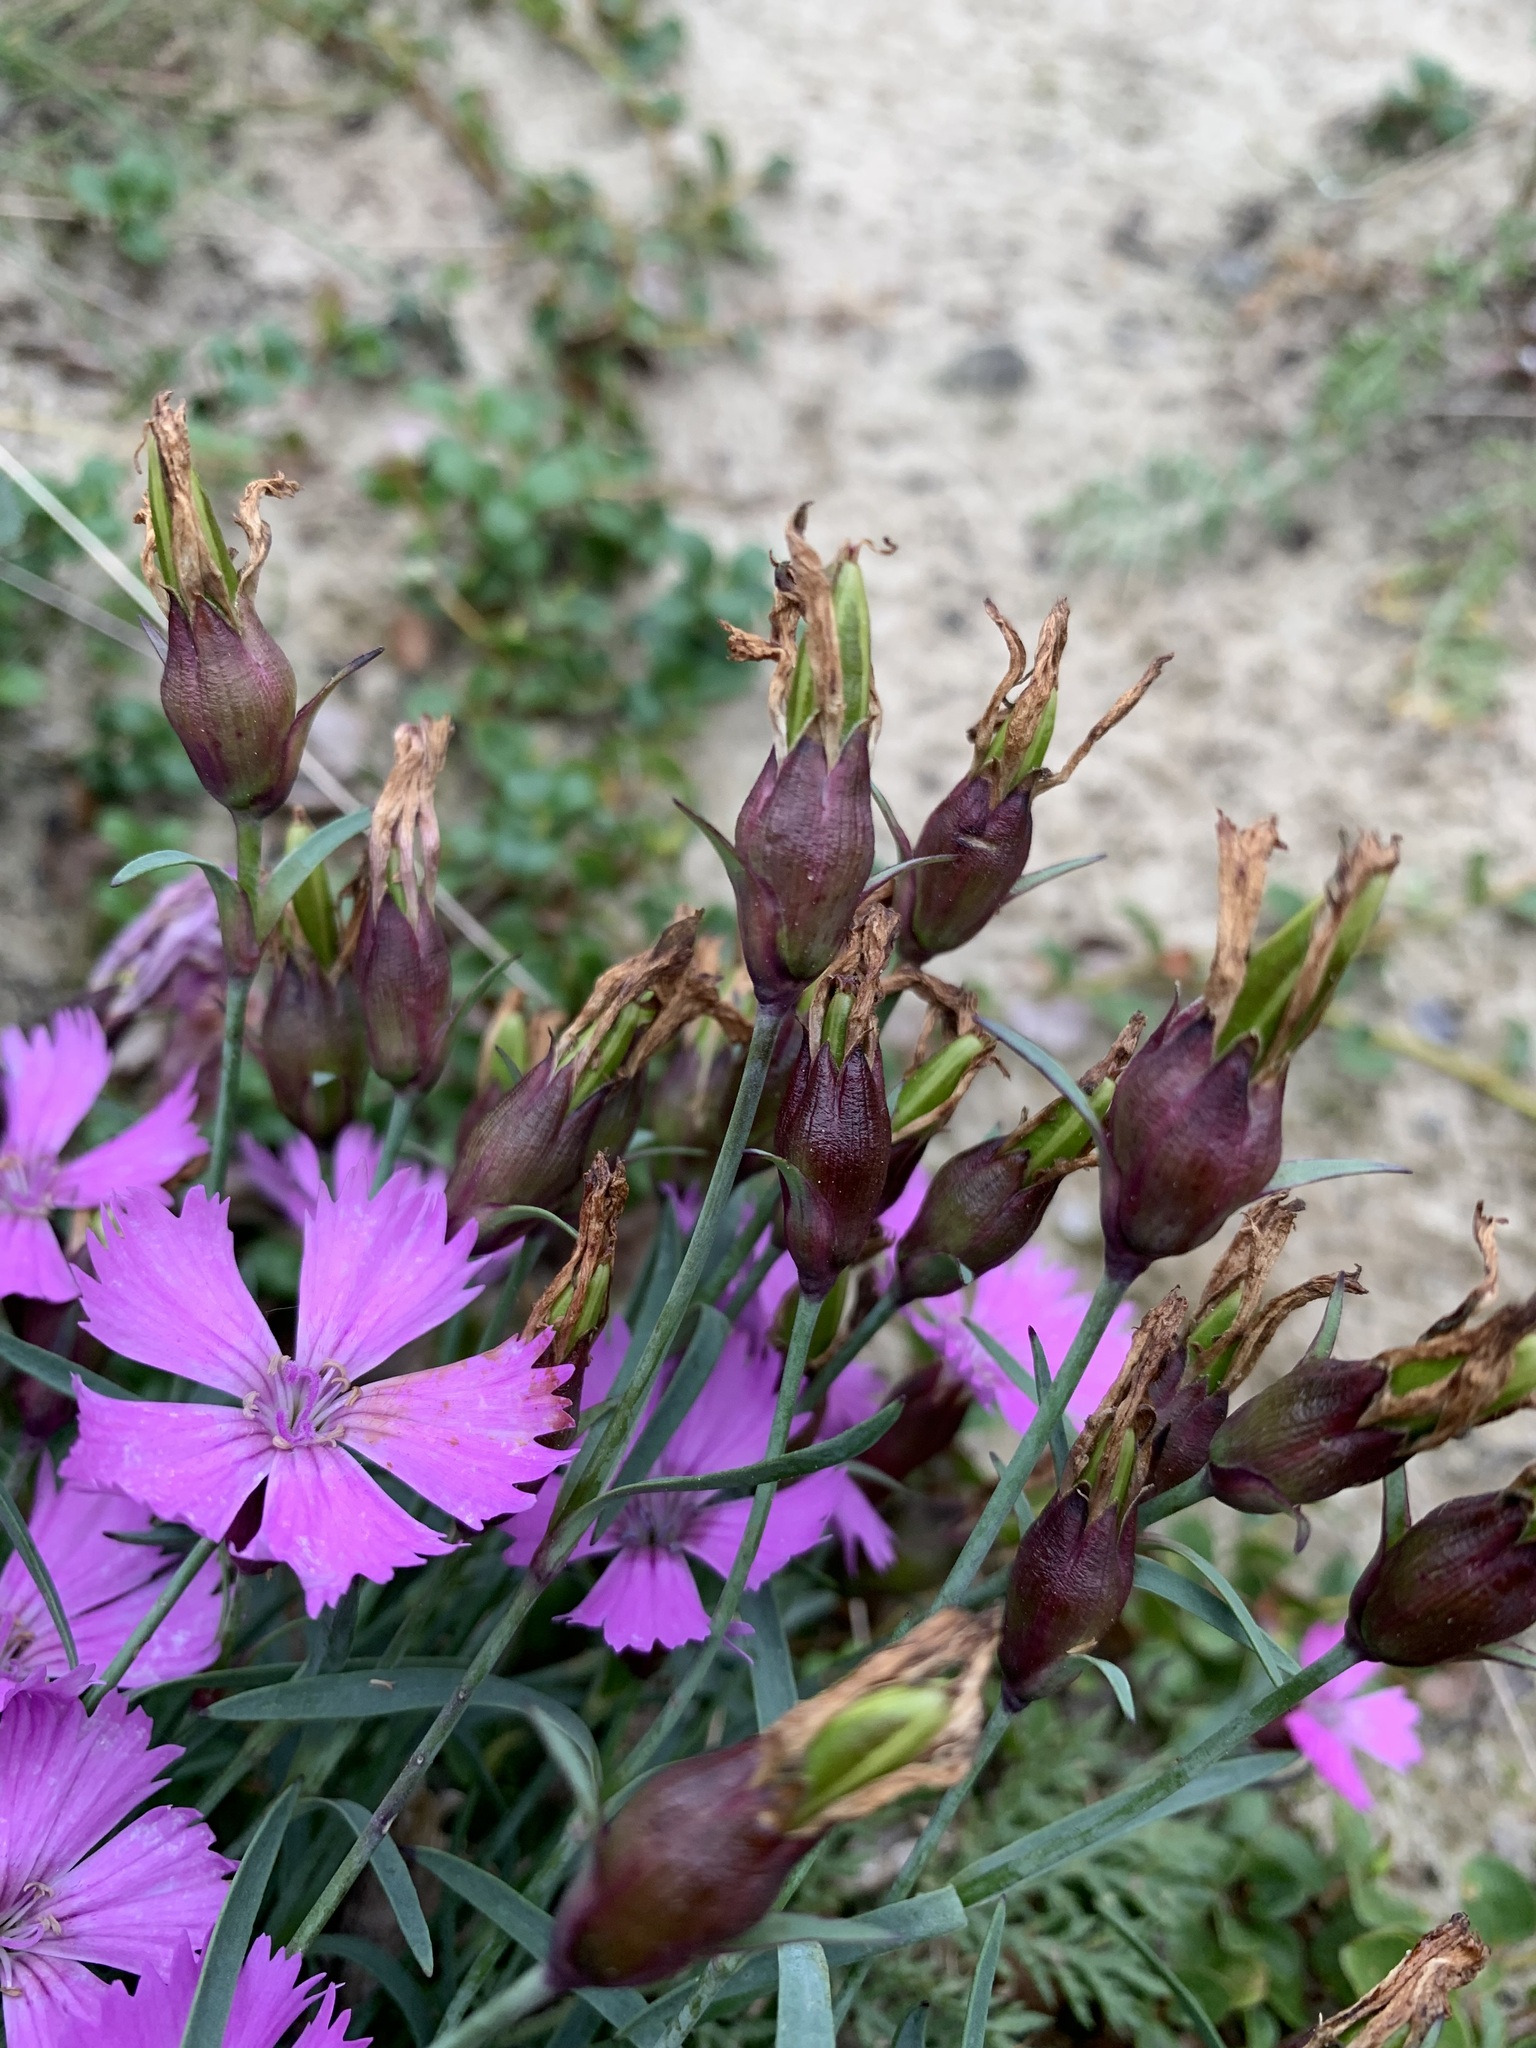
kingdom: Plantae
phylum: Tracheophyta
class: Magnoliopsida
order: Caryophyllales
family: Caryophyllaceae
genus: Dianthus
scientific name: Dianthus repens
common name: Northern pink
